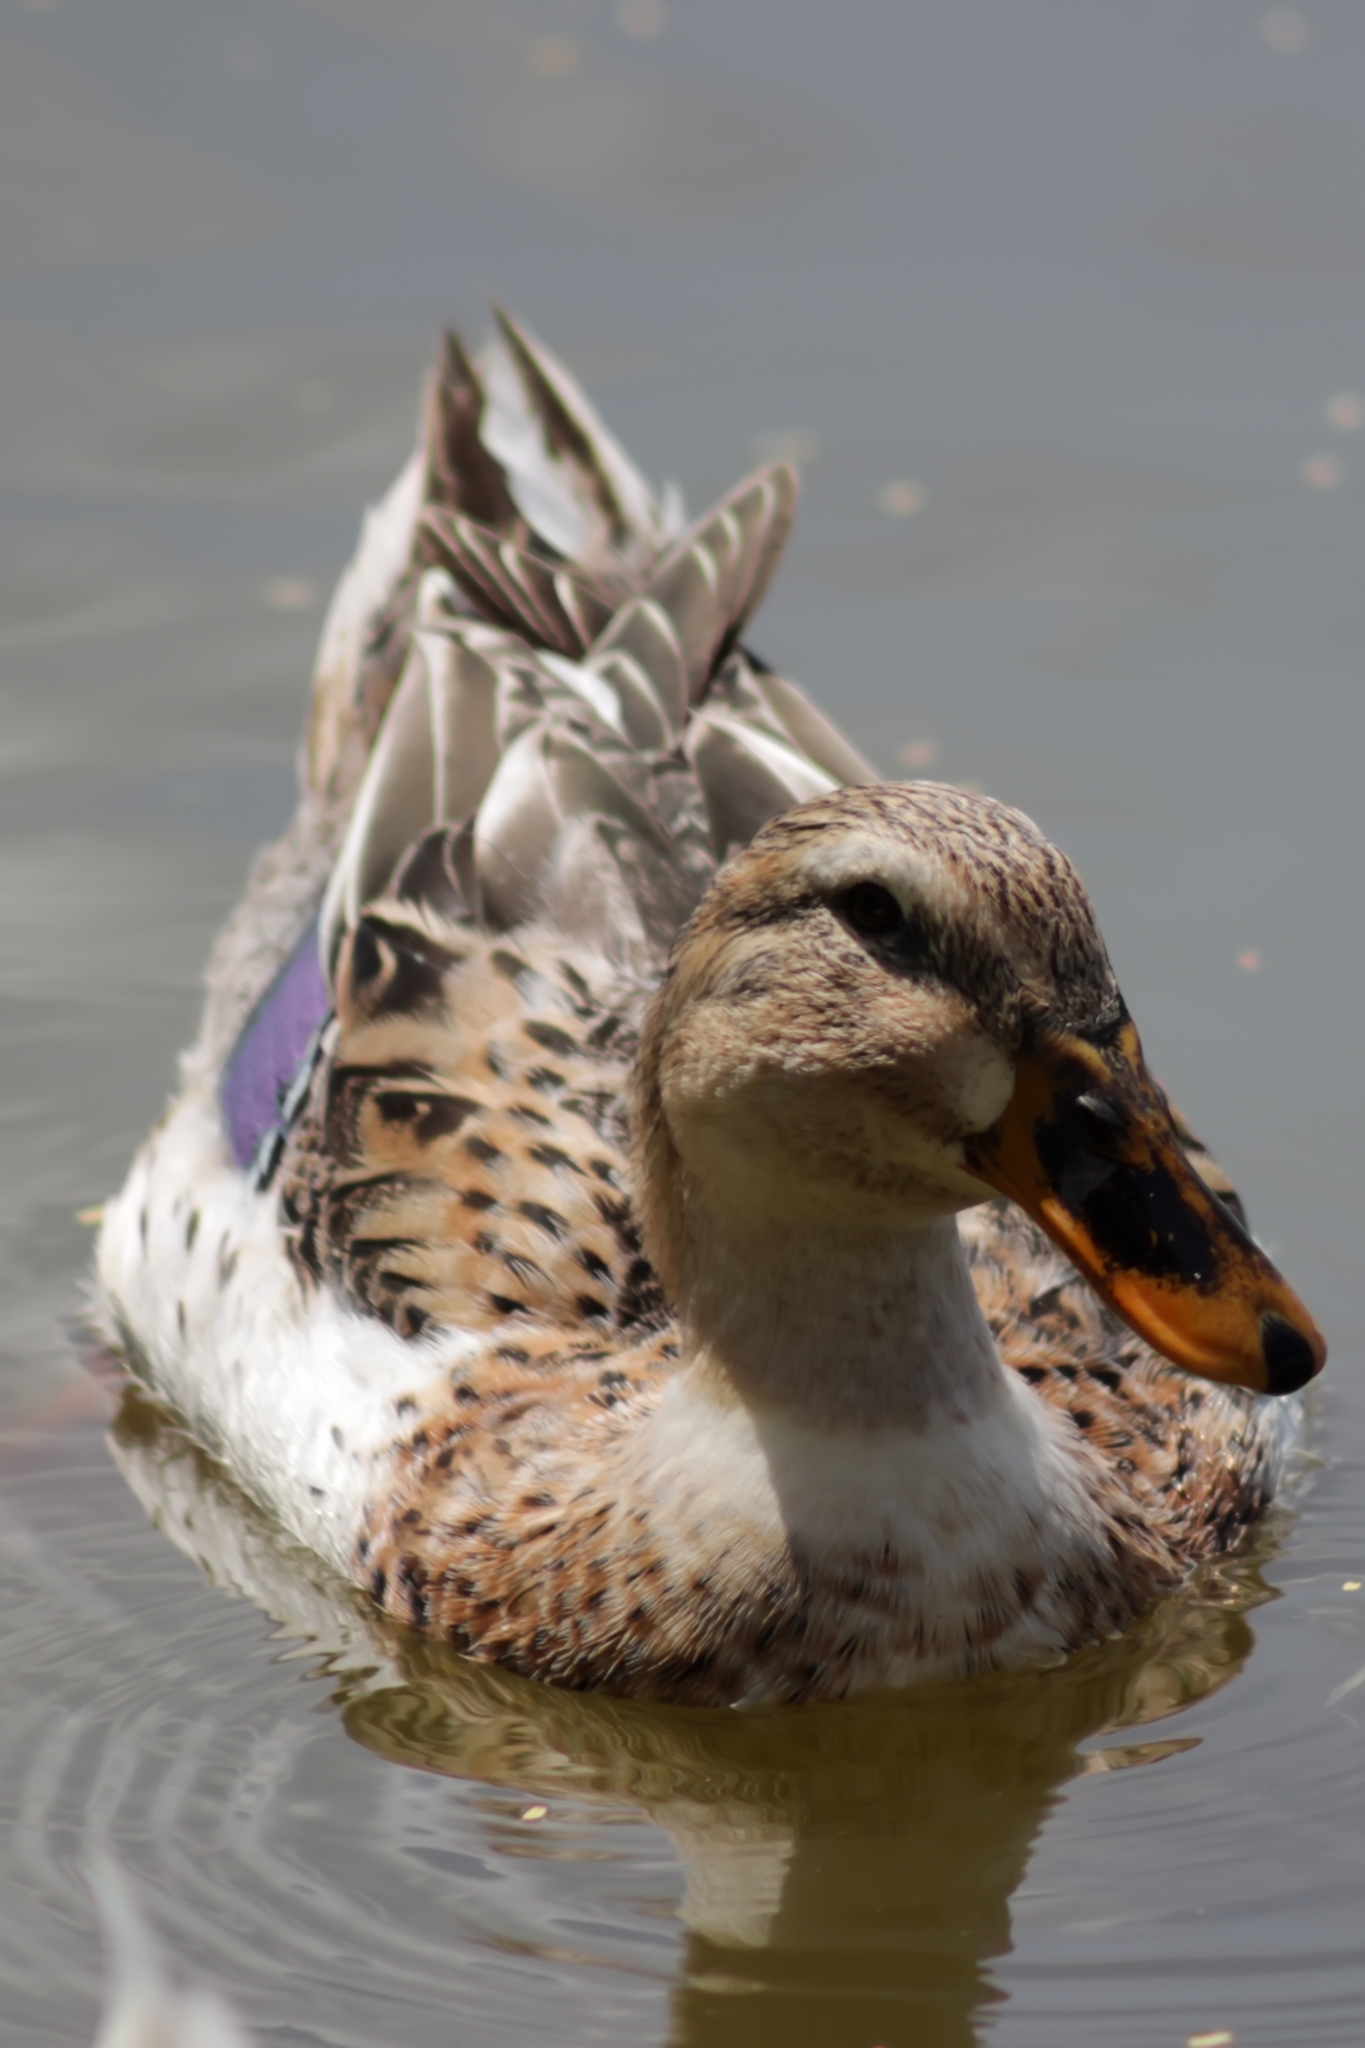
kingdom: Animalia
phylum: Chordata
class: Aves
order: Anseriformes
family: Anatidae
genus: Anas
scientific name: Anas platyrhynchos
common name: Mallard
